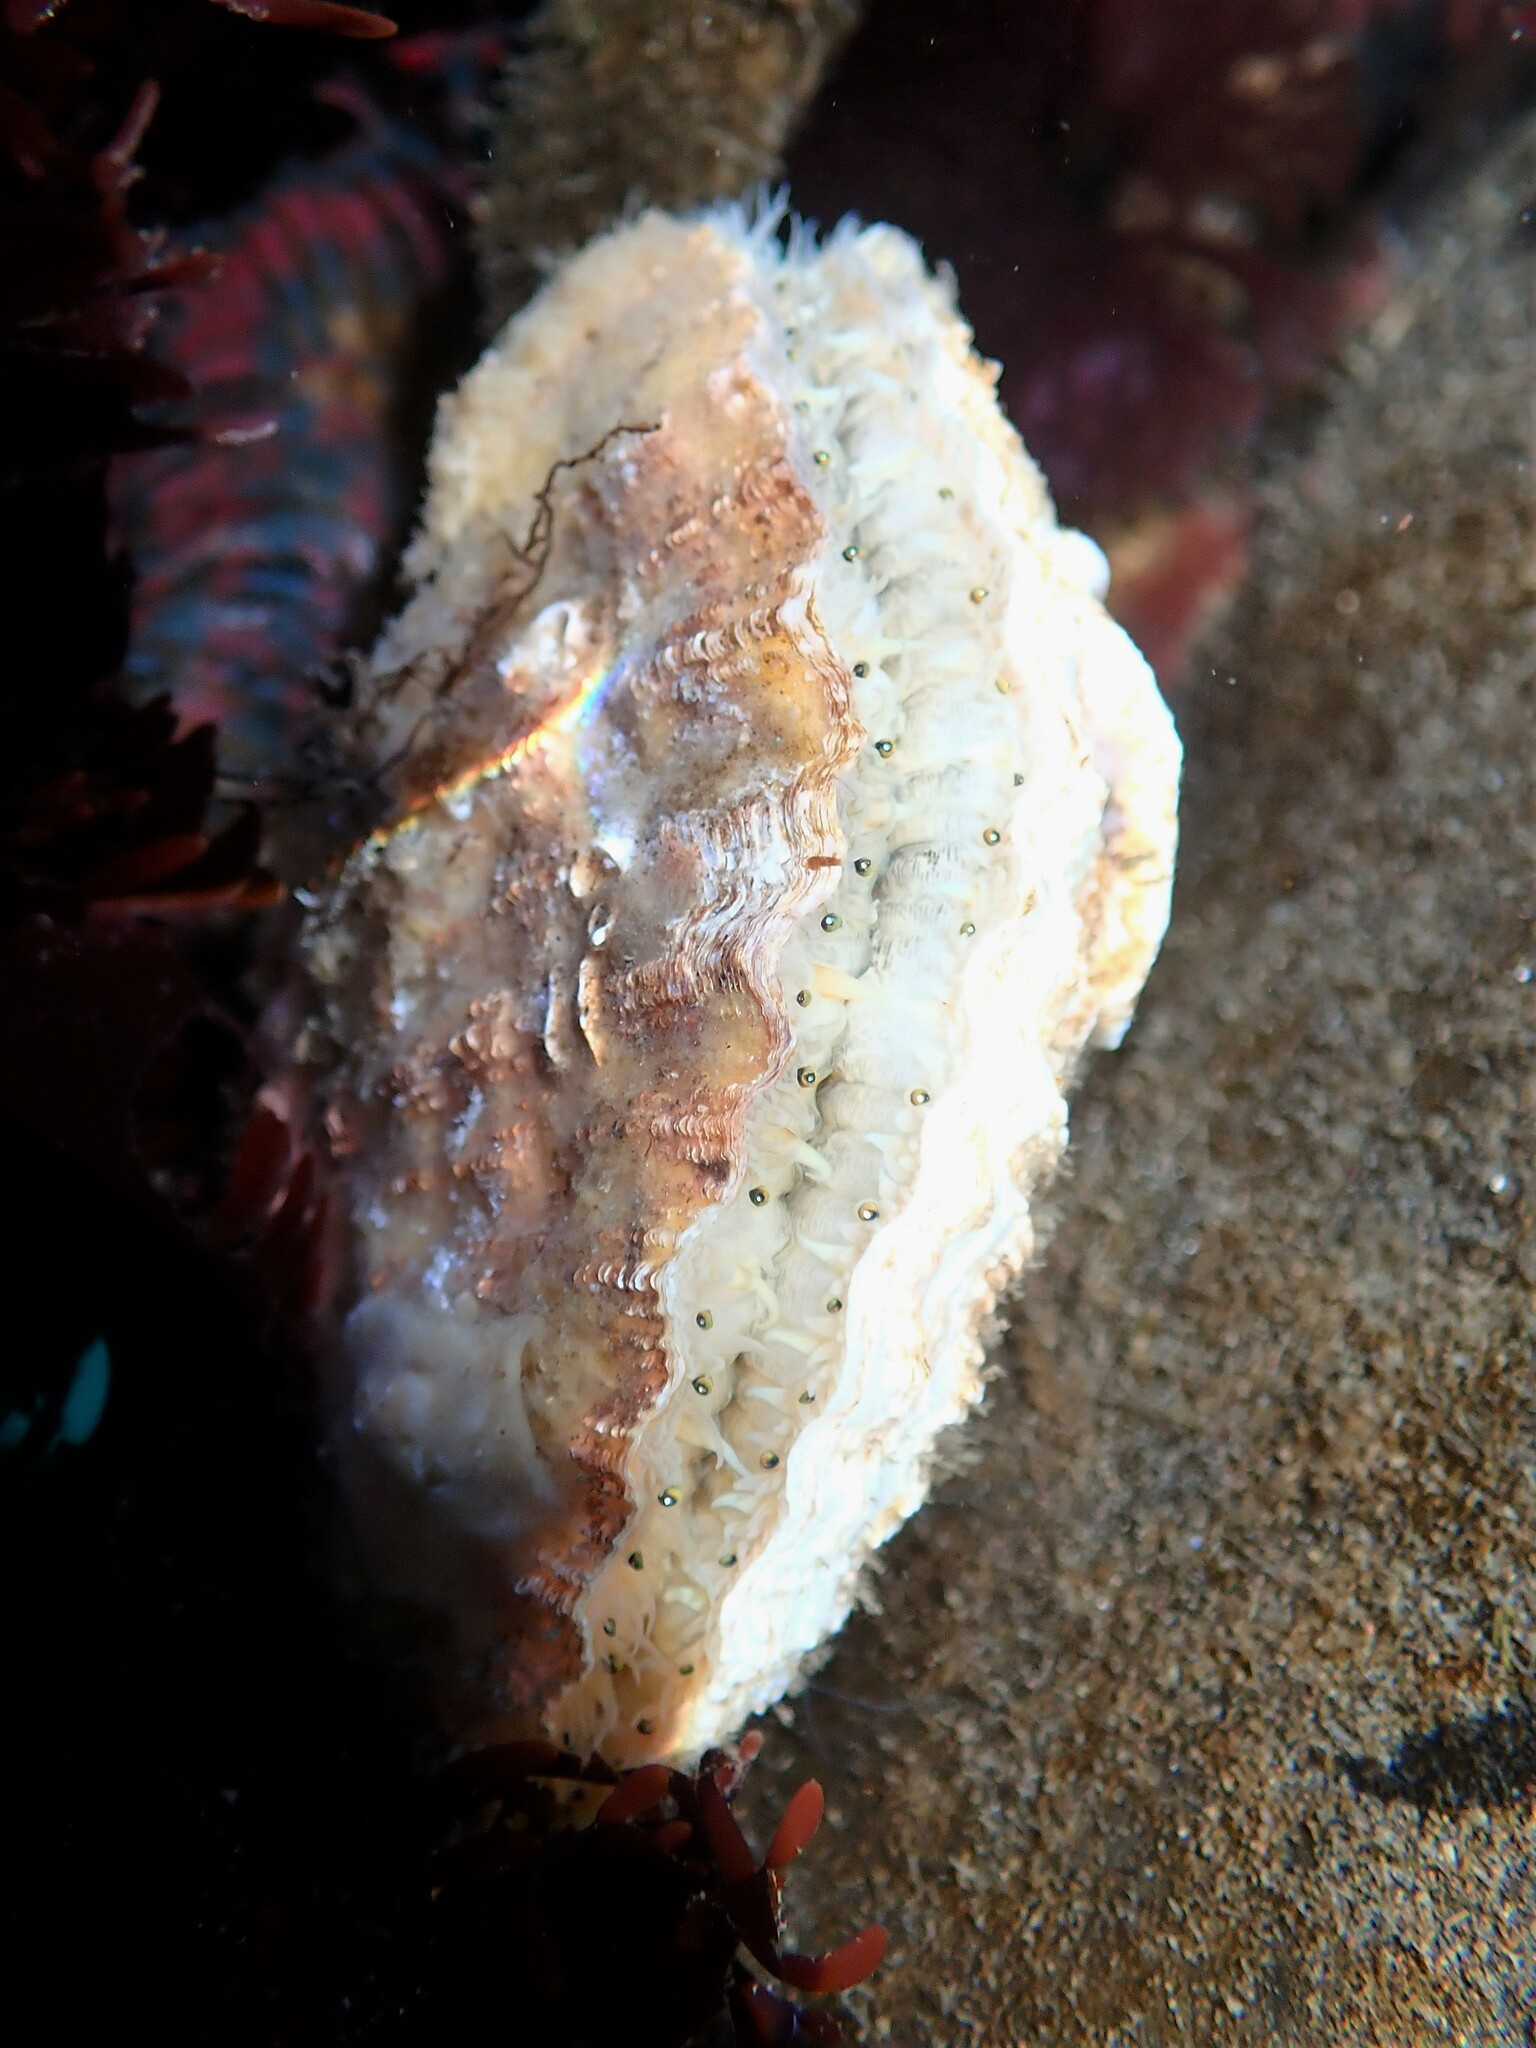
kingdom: Animalia
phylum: Mollusca
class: Bivalvia
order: Pectinida
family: Pectinidae
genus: Chlamys
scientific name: Chlamys hastata
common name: Spear scallop
